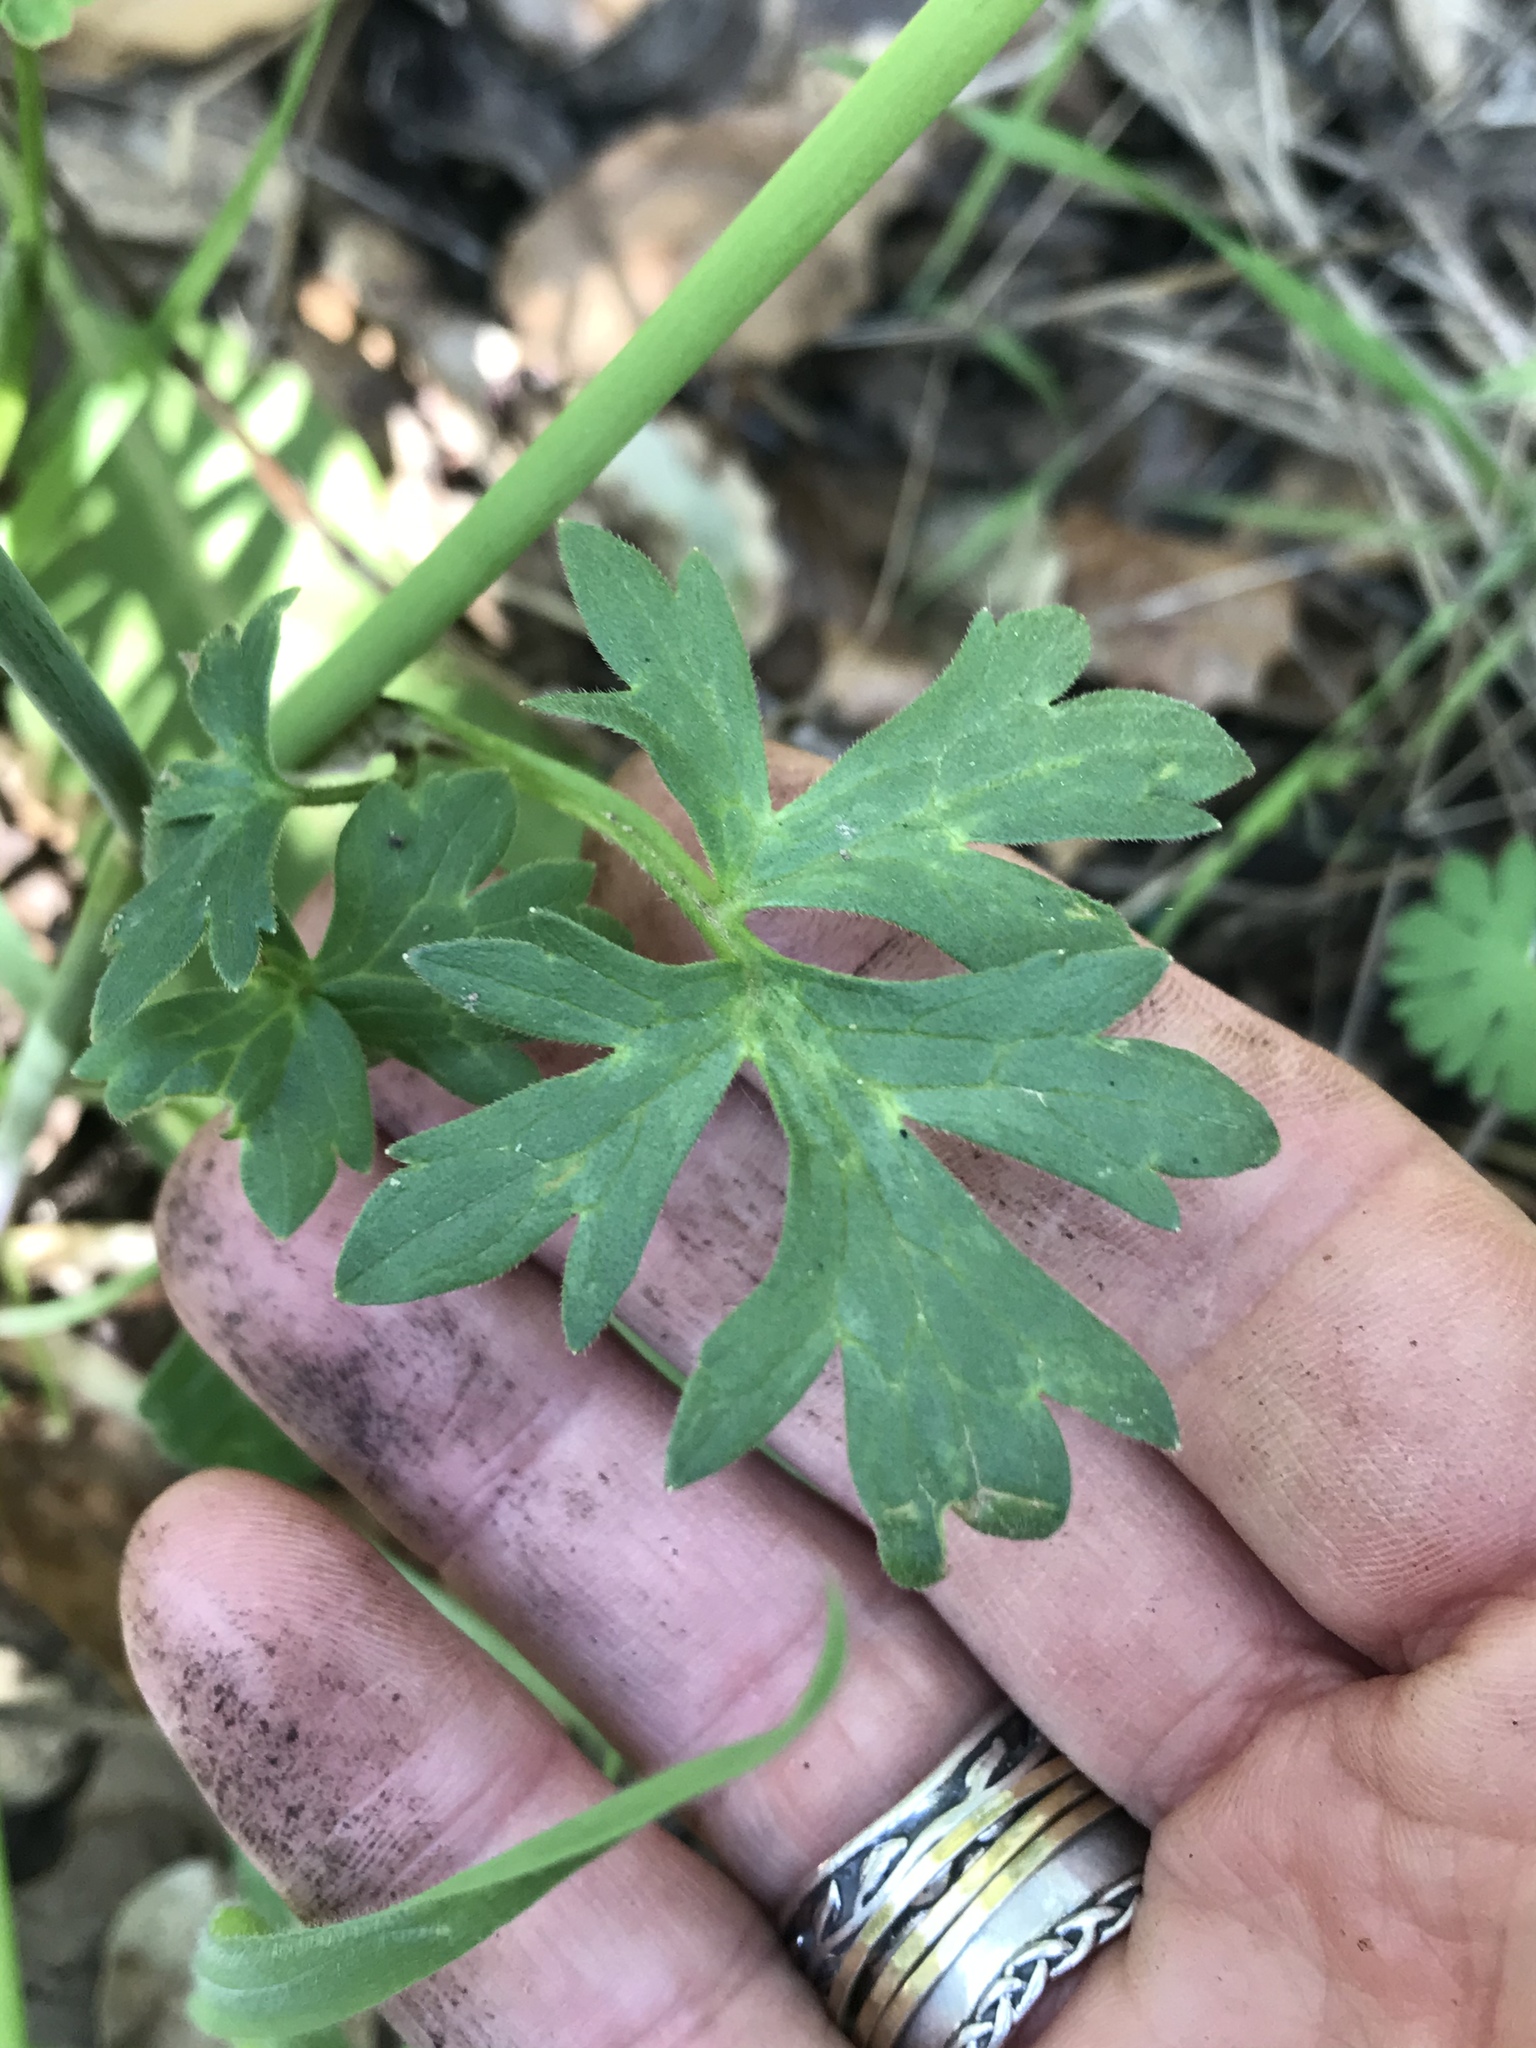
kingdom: Plantae
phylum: Tracheophyta
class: Magnoliopsida
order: Ranunculales
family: Ranunculaceae
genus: Ranunculus
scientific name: Ranunculus californicus
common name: California buttercup
